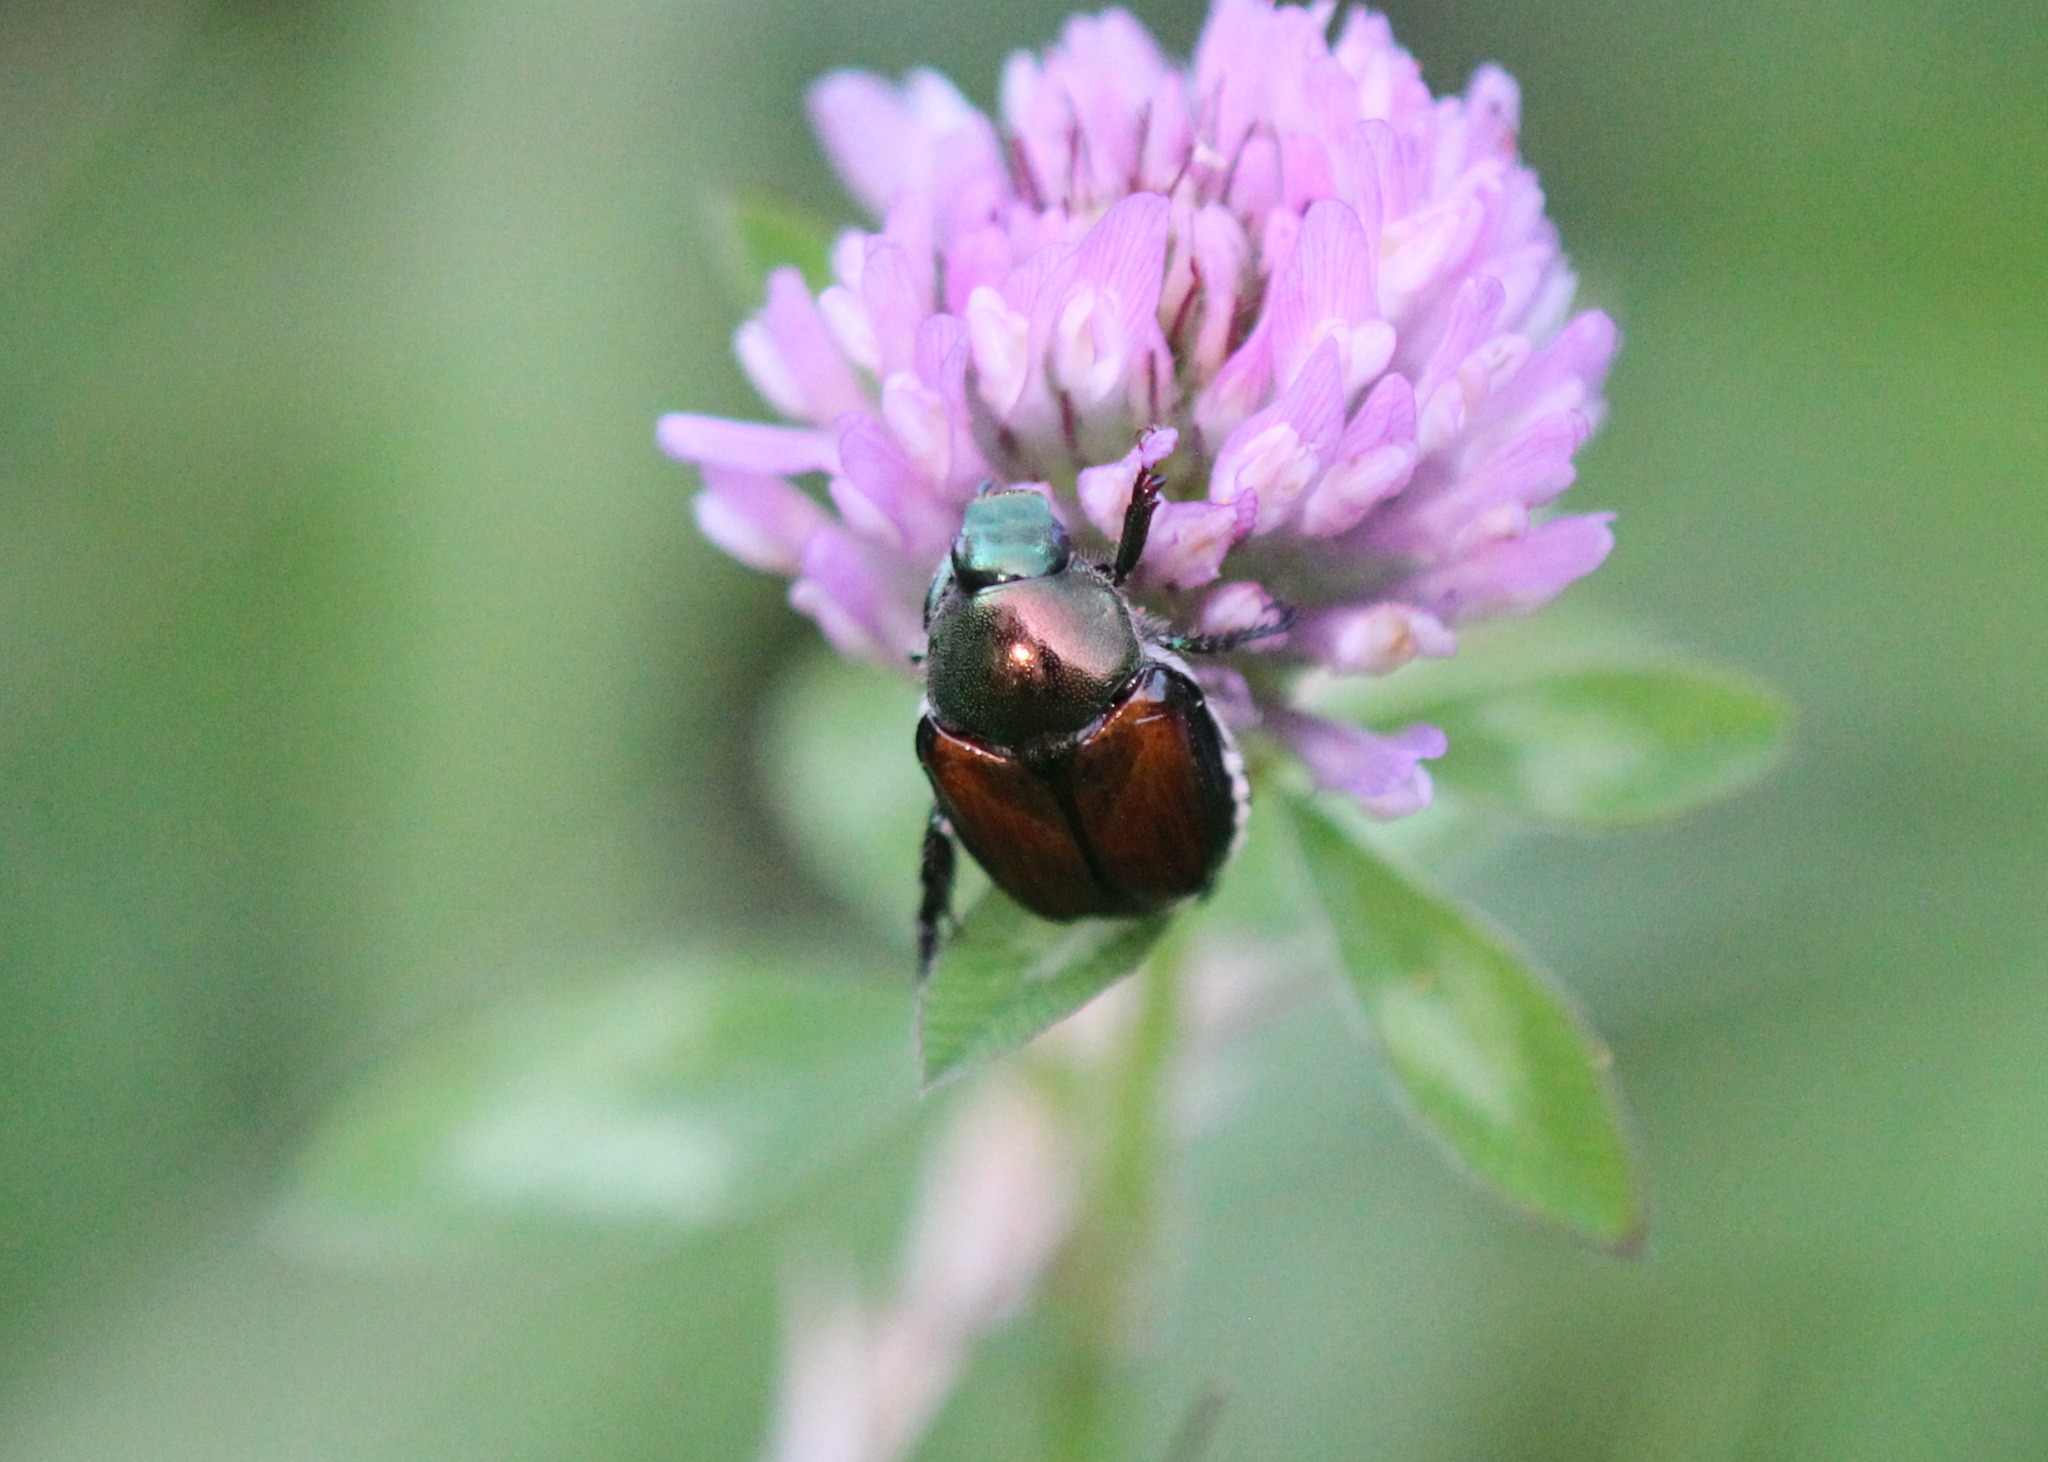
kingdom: Animalia
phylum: Arthropoda
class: Insecta
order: Coleoptera
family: Scarabaeidae
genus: Popillia
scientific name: Popillia japonica
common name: Japanese beetle
